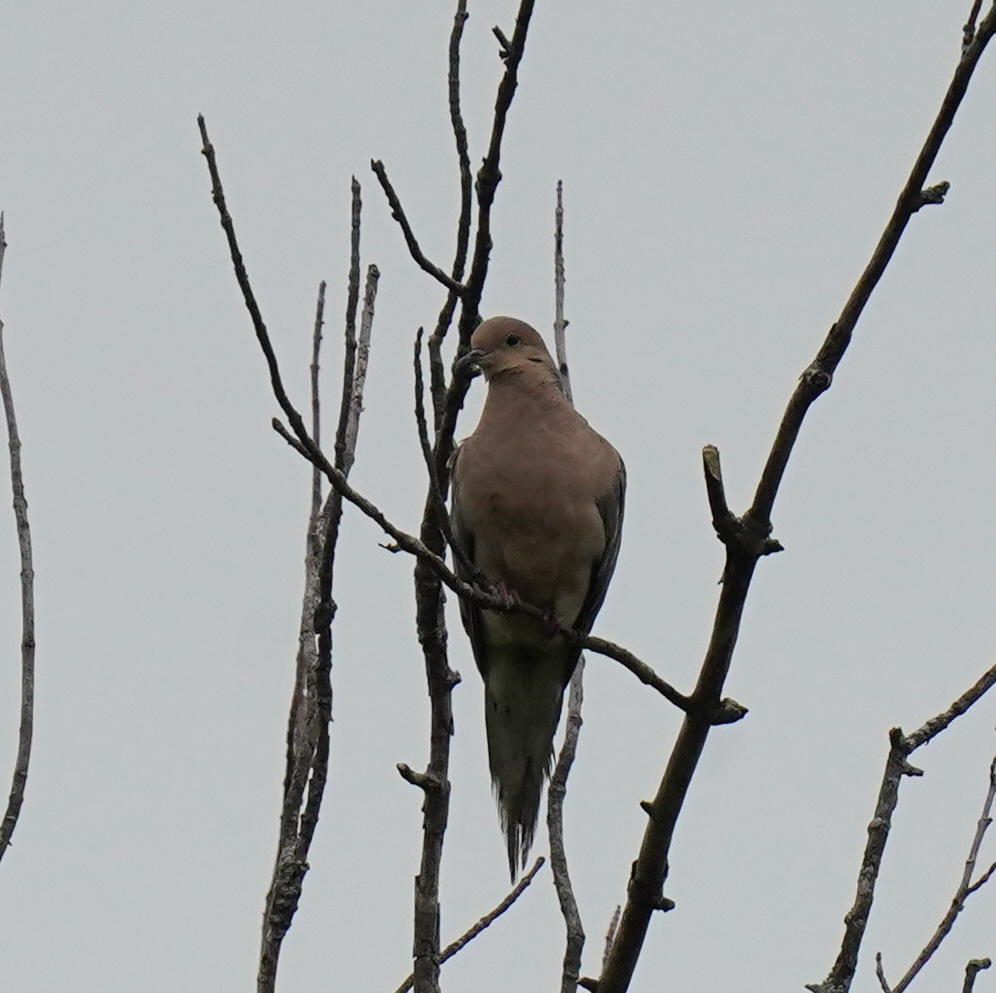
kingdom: Animalia
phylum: Chordata
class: Aves
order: Columbiformes
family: Columbidae
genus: Zenaida
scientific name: Zenaida macroura
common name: Mourning dove
